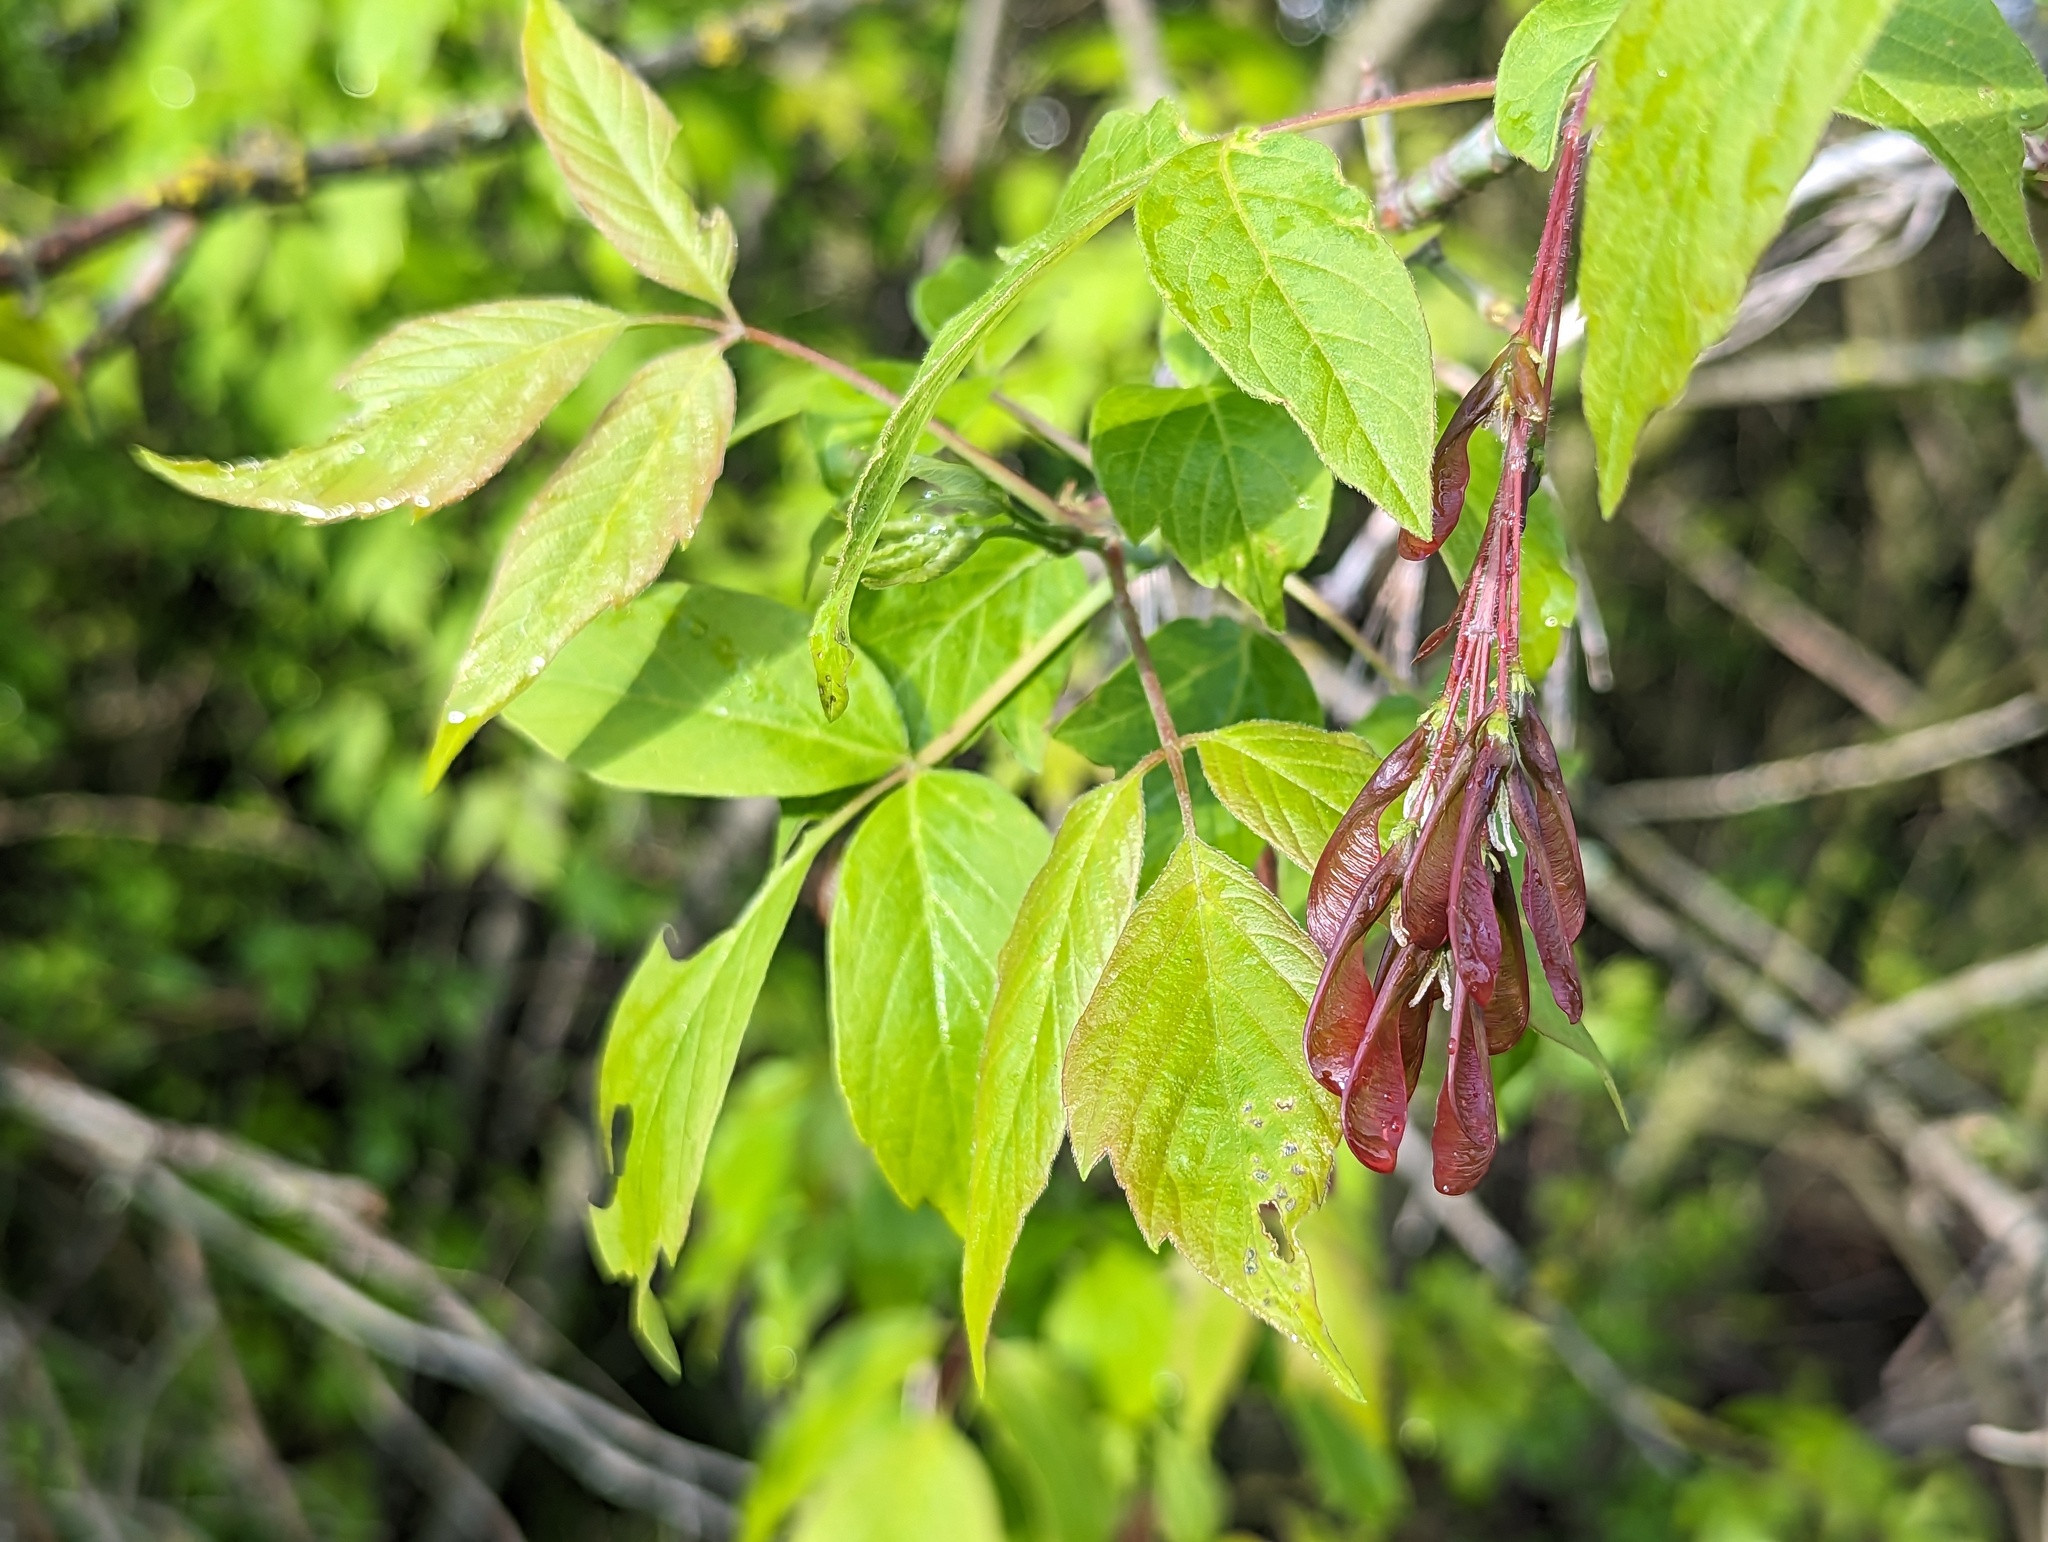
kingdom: Plantae
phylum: Tracheophyta
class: Magnoliopsida
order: Sapindales
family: Sapindaceae
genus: Acer
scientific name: Acer negundo
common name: Ashleaf maple
